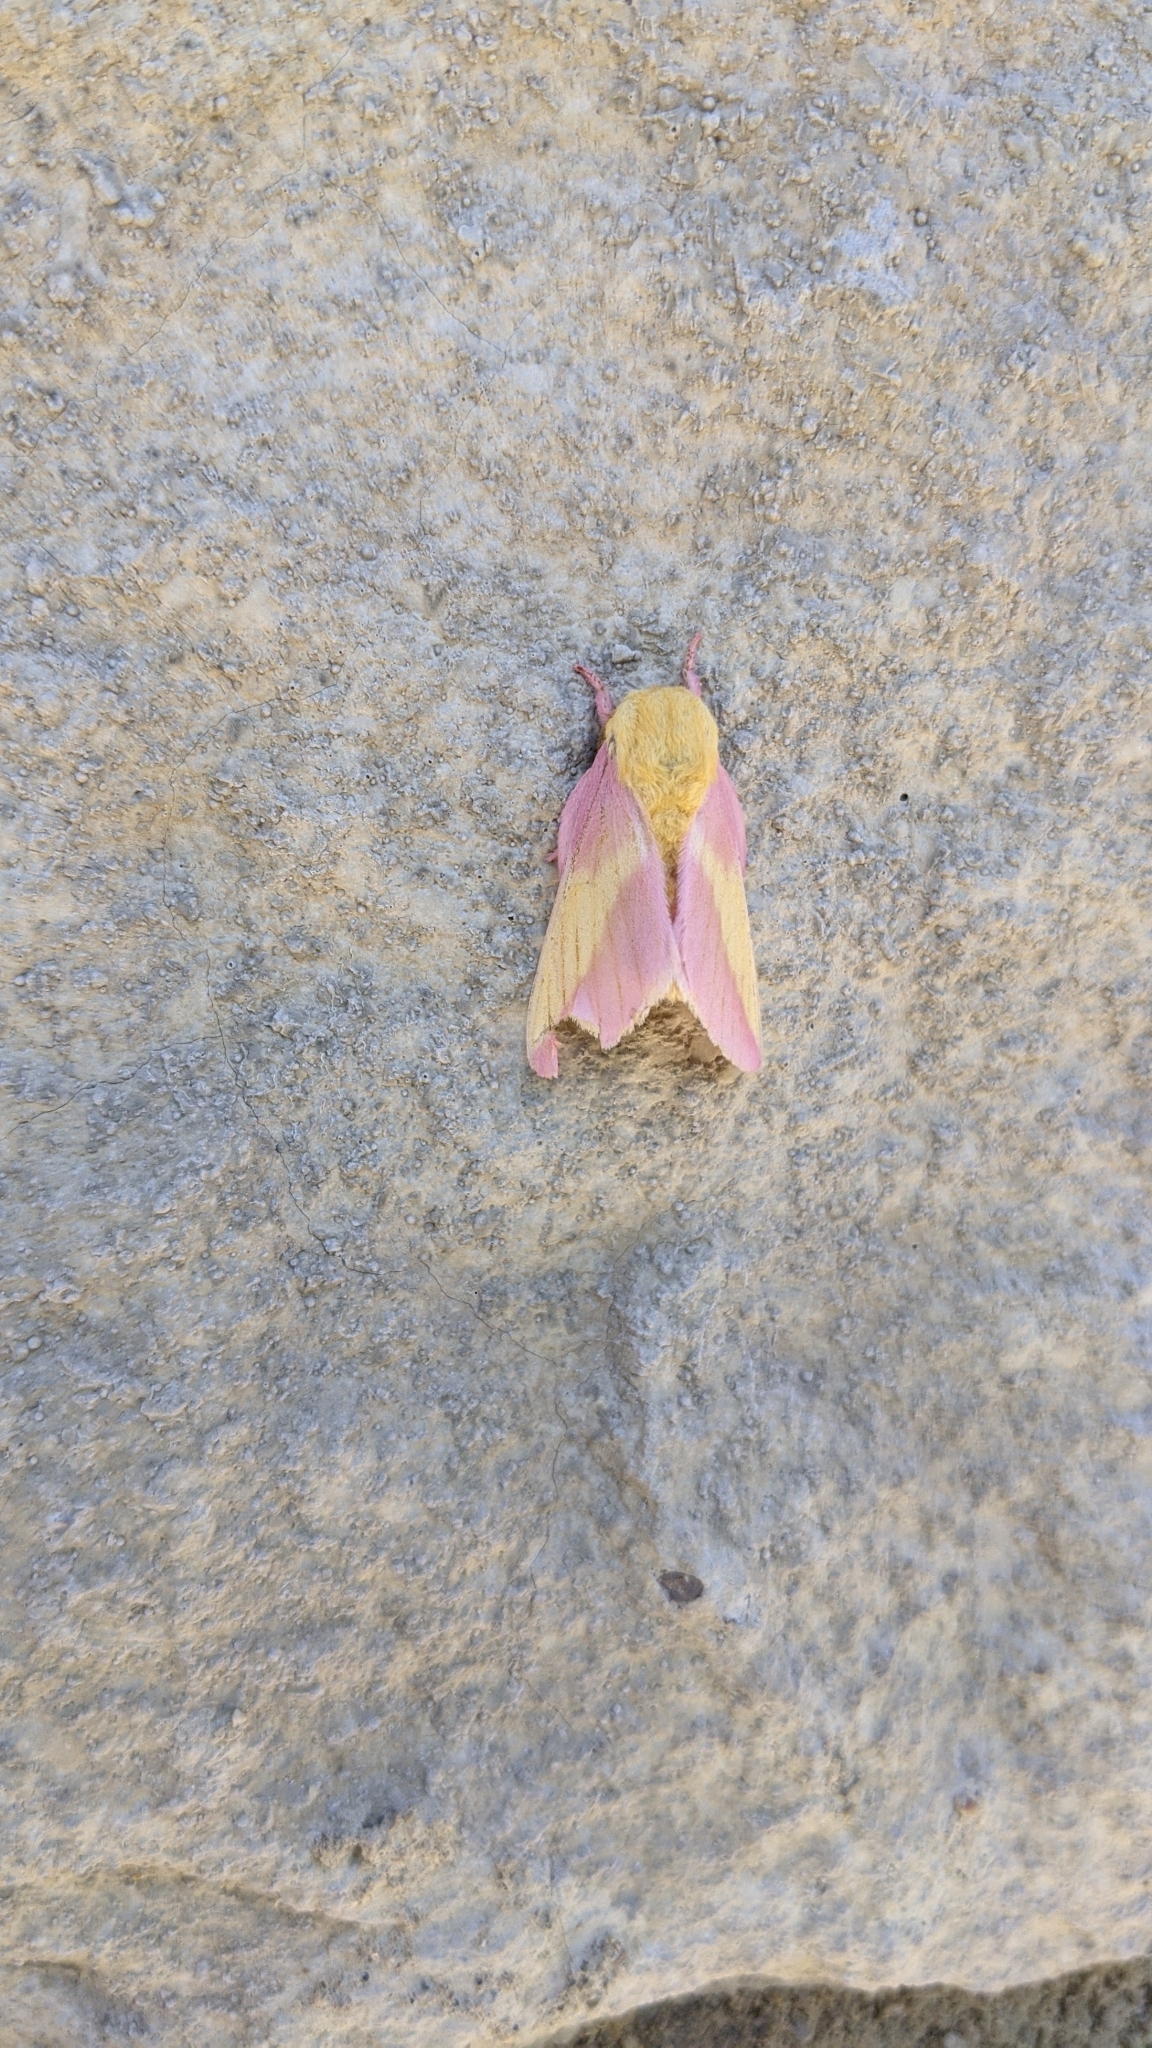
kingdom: Animalia
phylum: Arthropoda
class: Insecta
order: Lepidoptera
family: Saturniidae
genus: Dryocampa
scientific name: Dryocampa rubicunda
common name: Rosy maple moth
